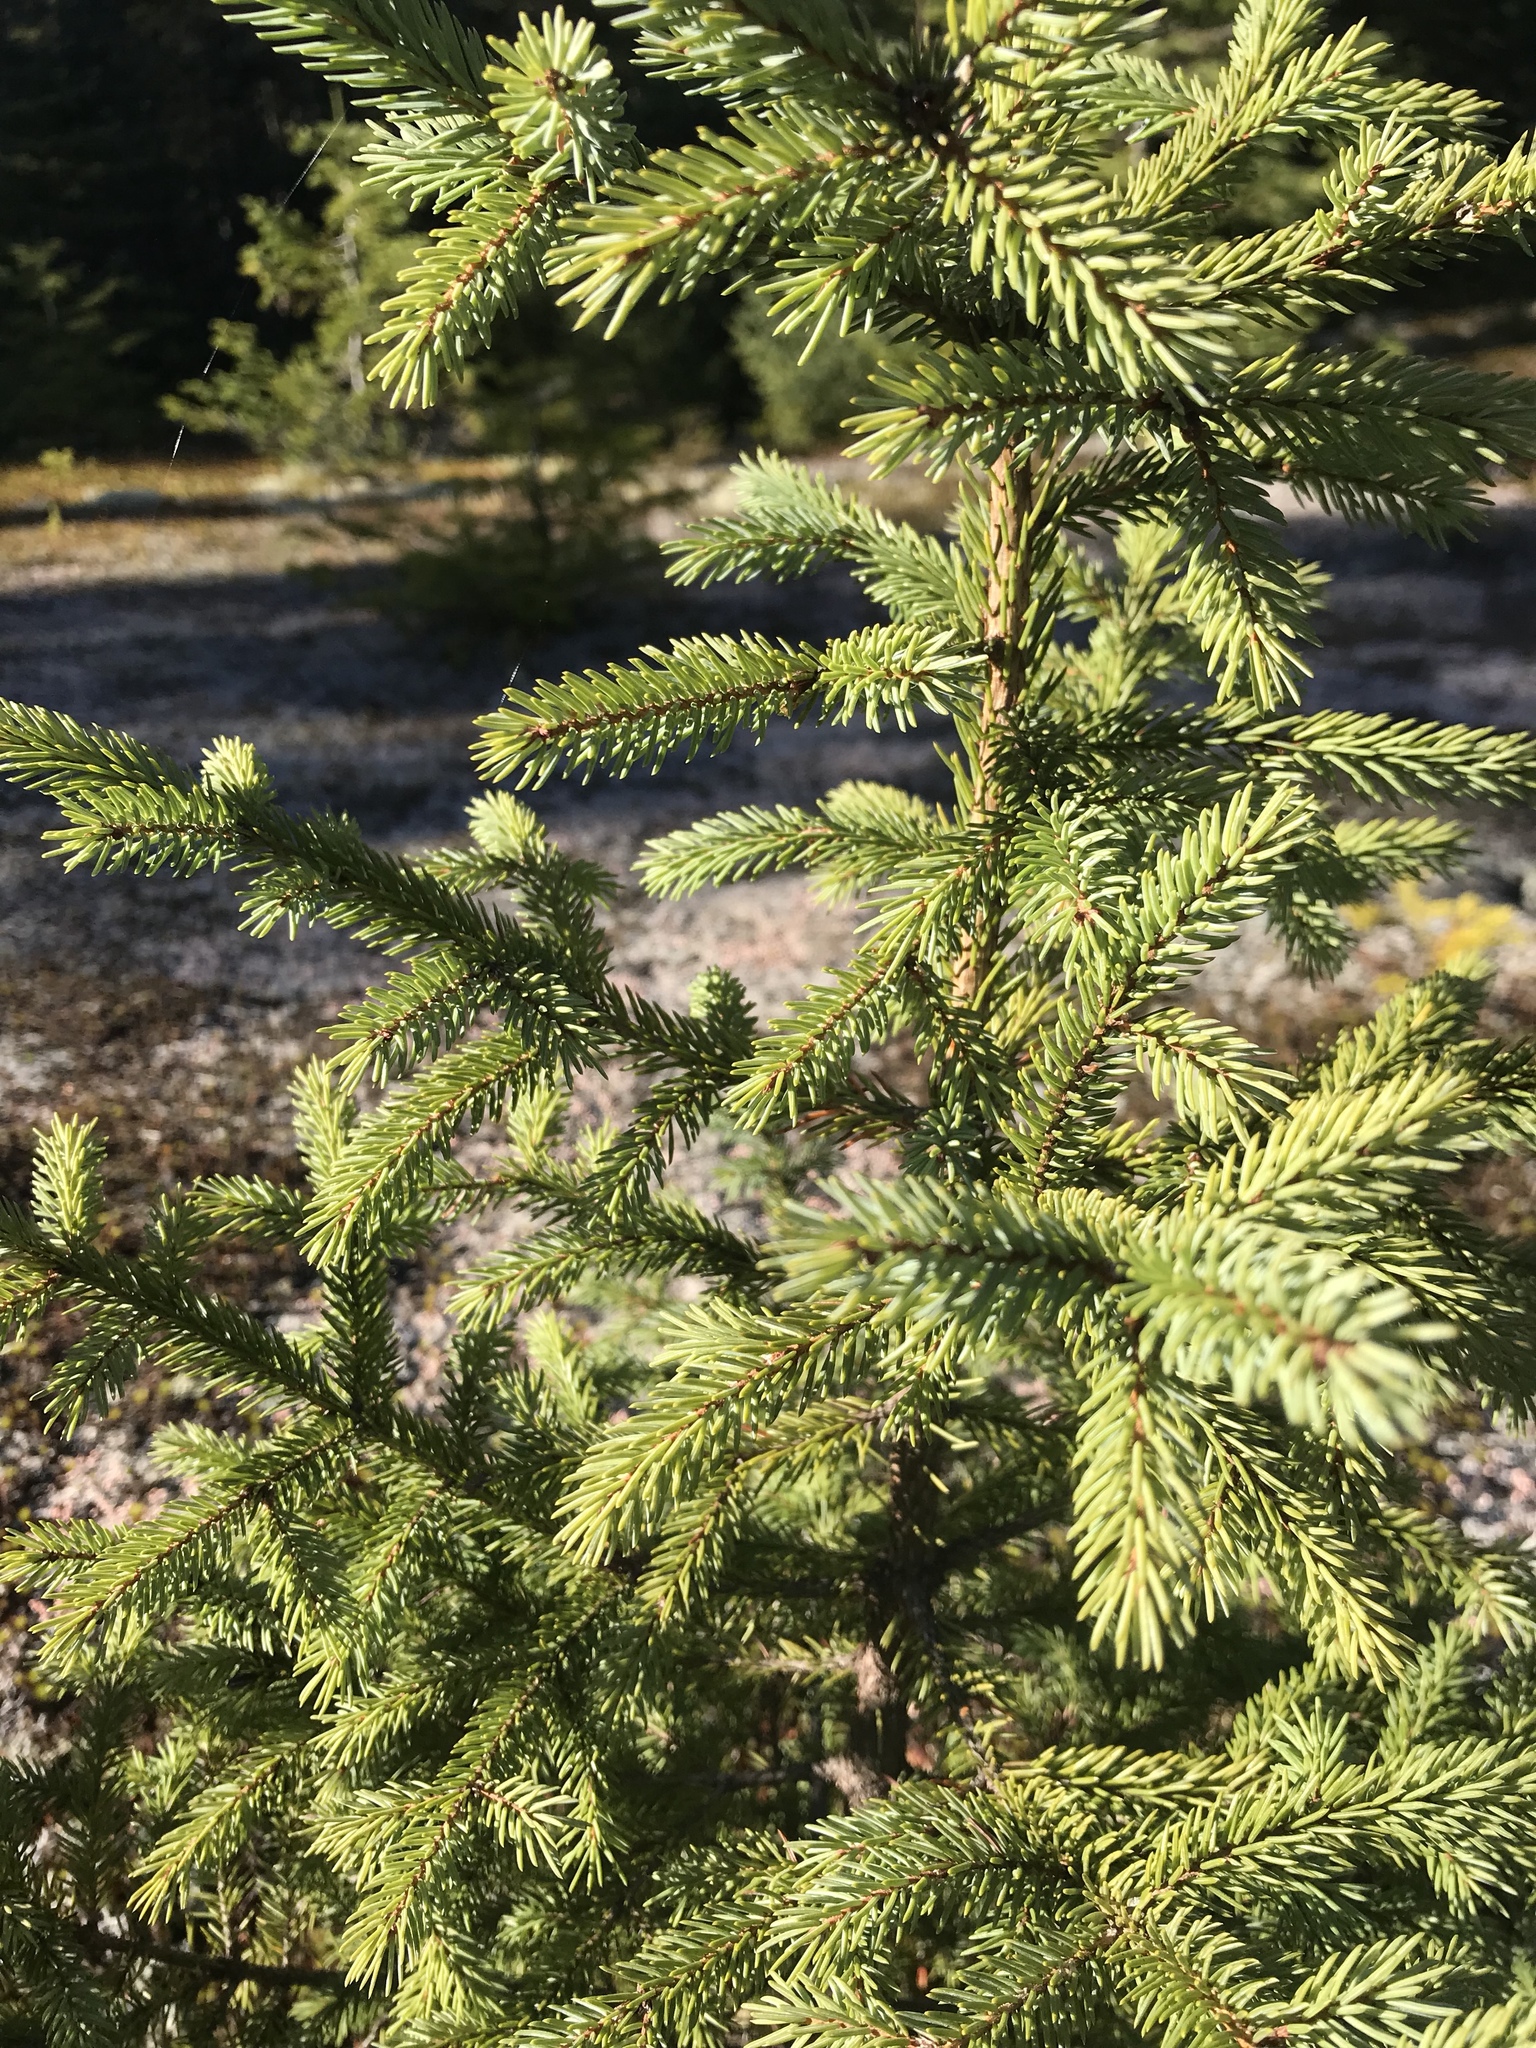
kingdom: Plantae
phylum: Tracheophyta
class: Pinopsida
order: Pinales
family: Pinaceae
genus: Picea
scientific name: Picea mariana
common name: Black spruce
